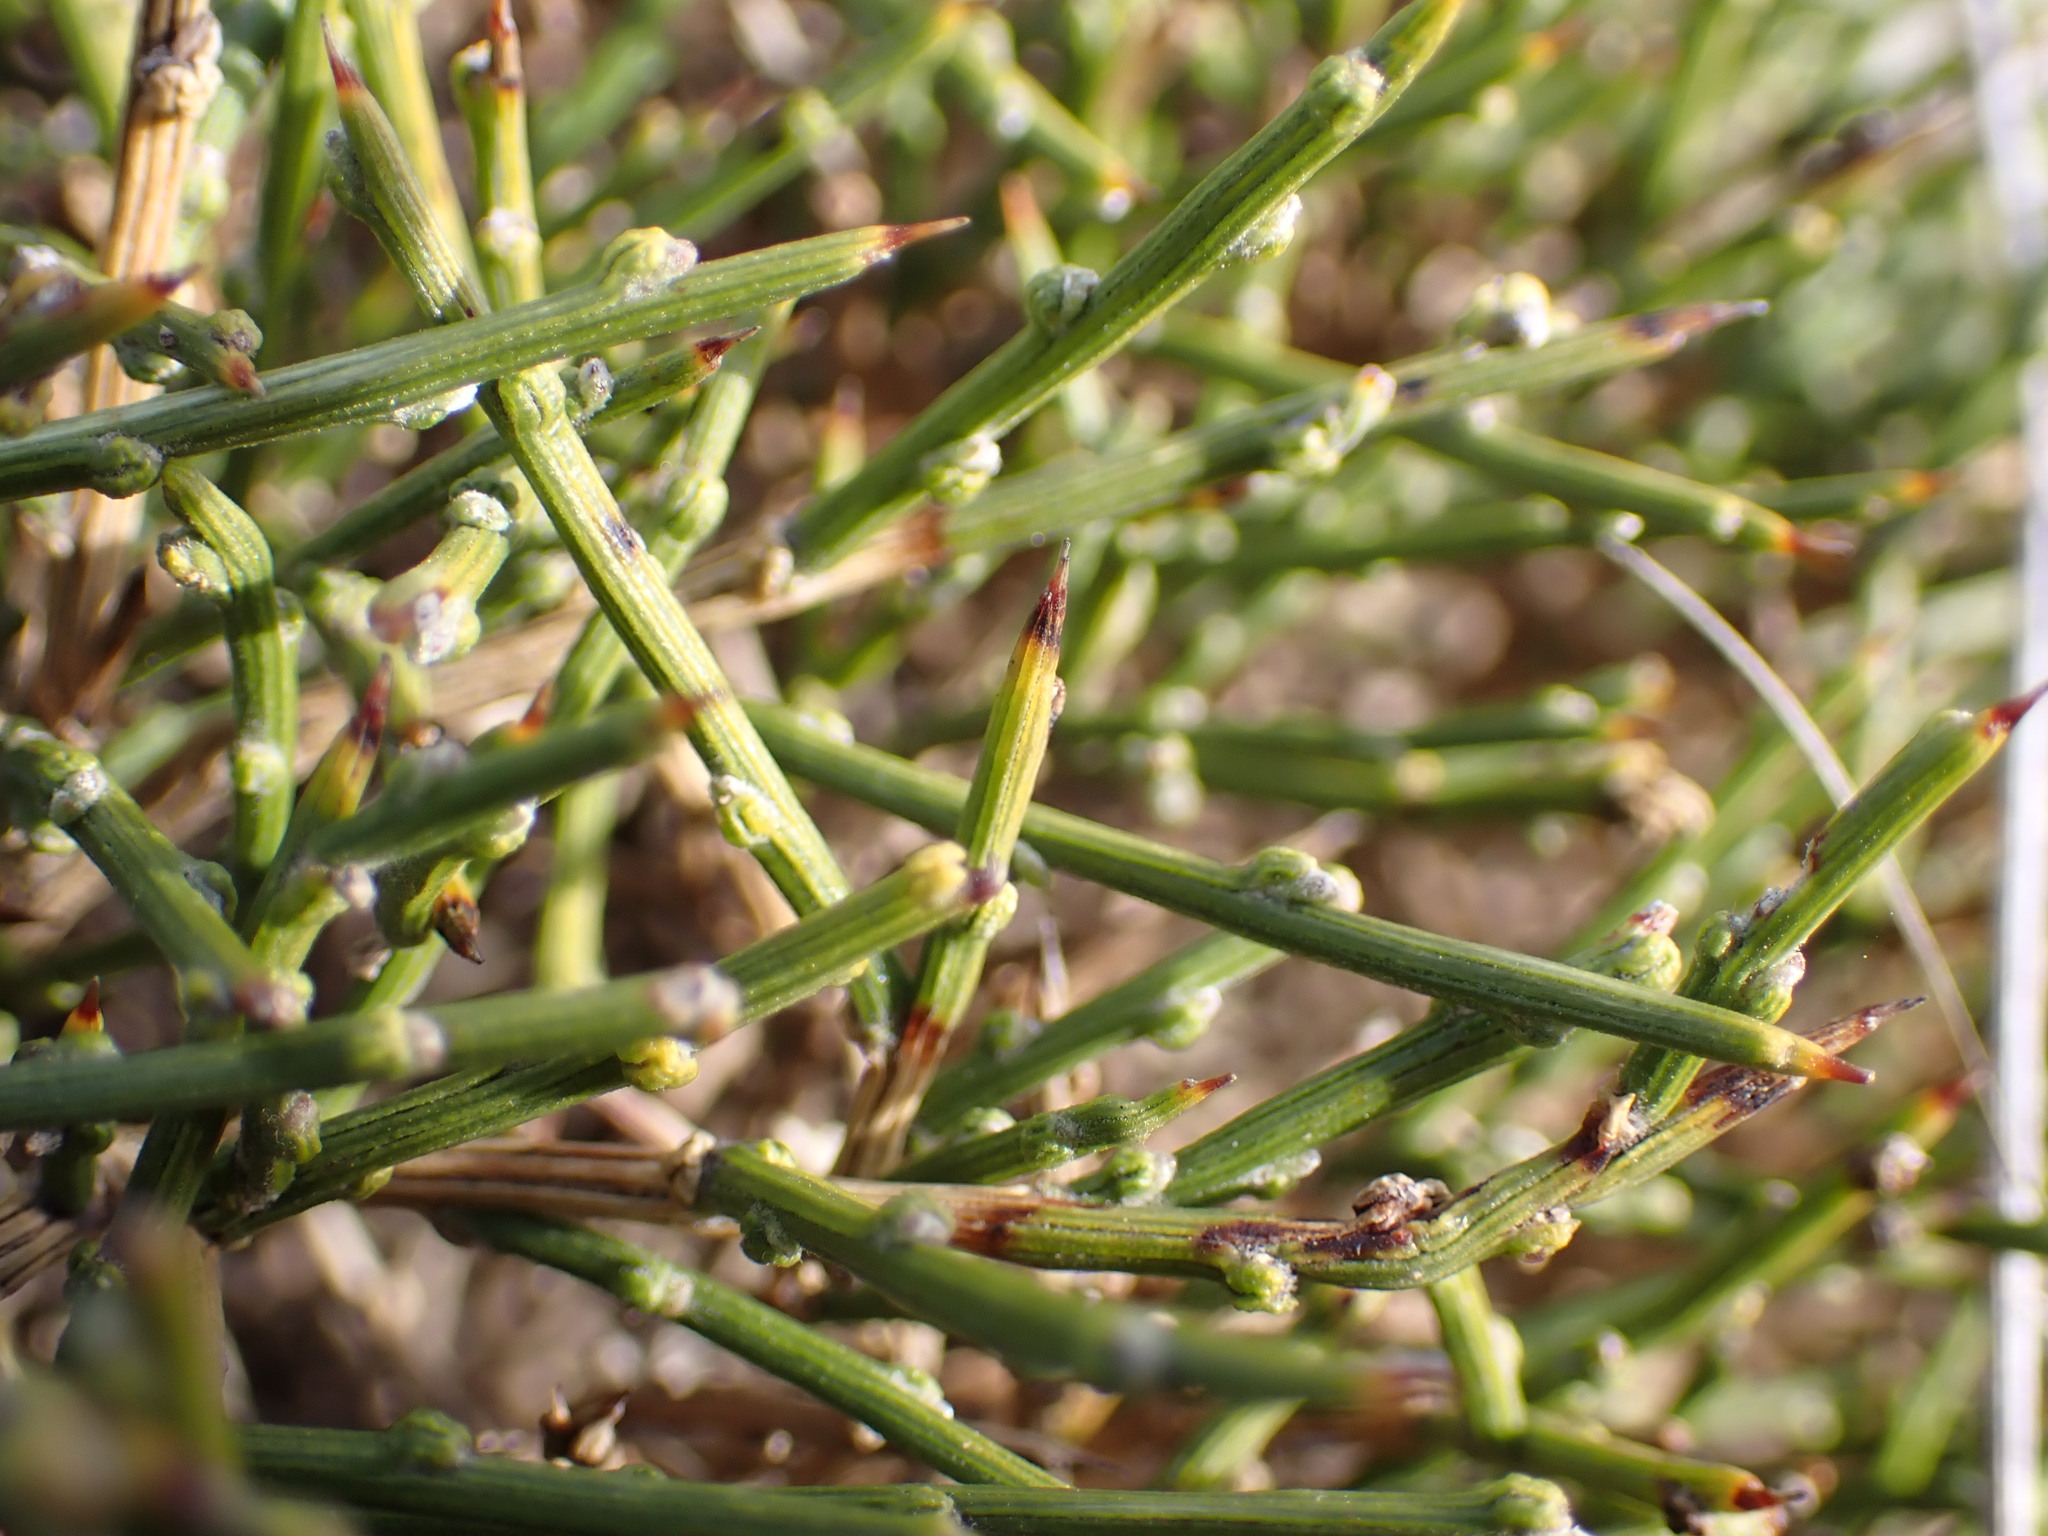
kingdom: Plantae
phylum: Tracheophyta
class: Magnoliopsida
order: Fabales
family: Fabaceae
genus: Genista
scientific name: Genista lobelii
